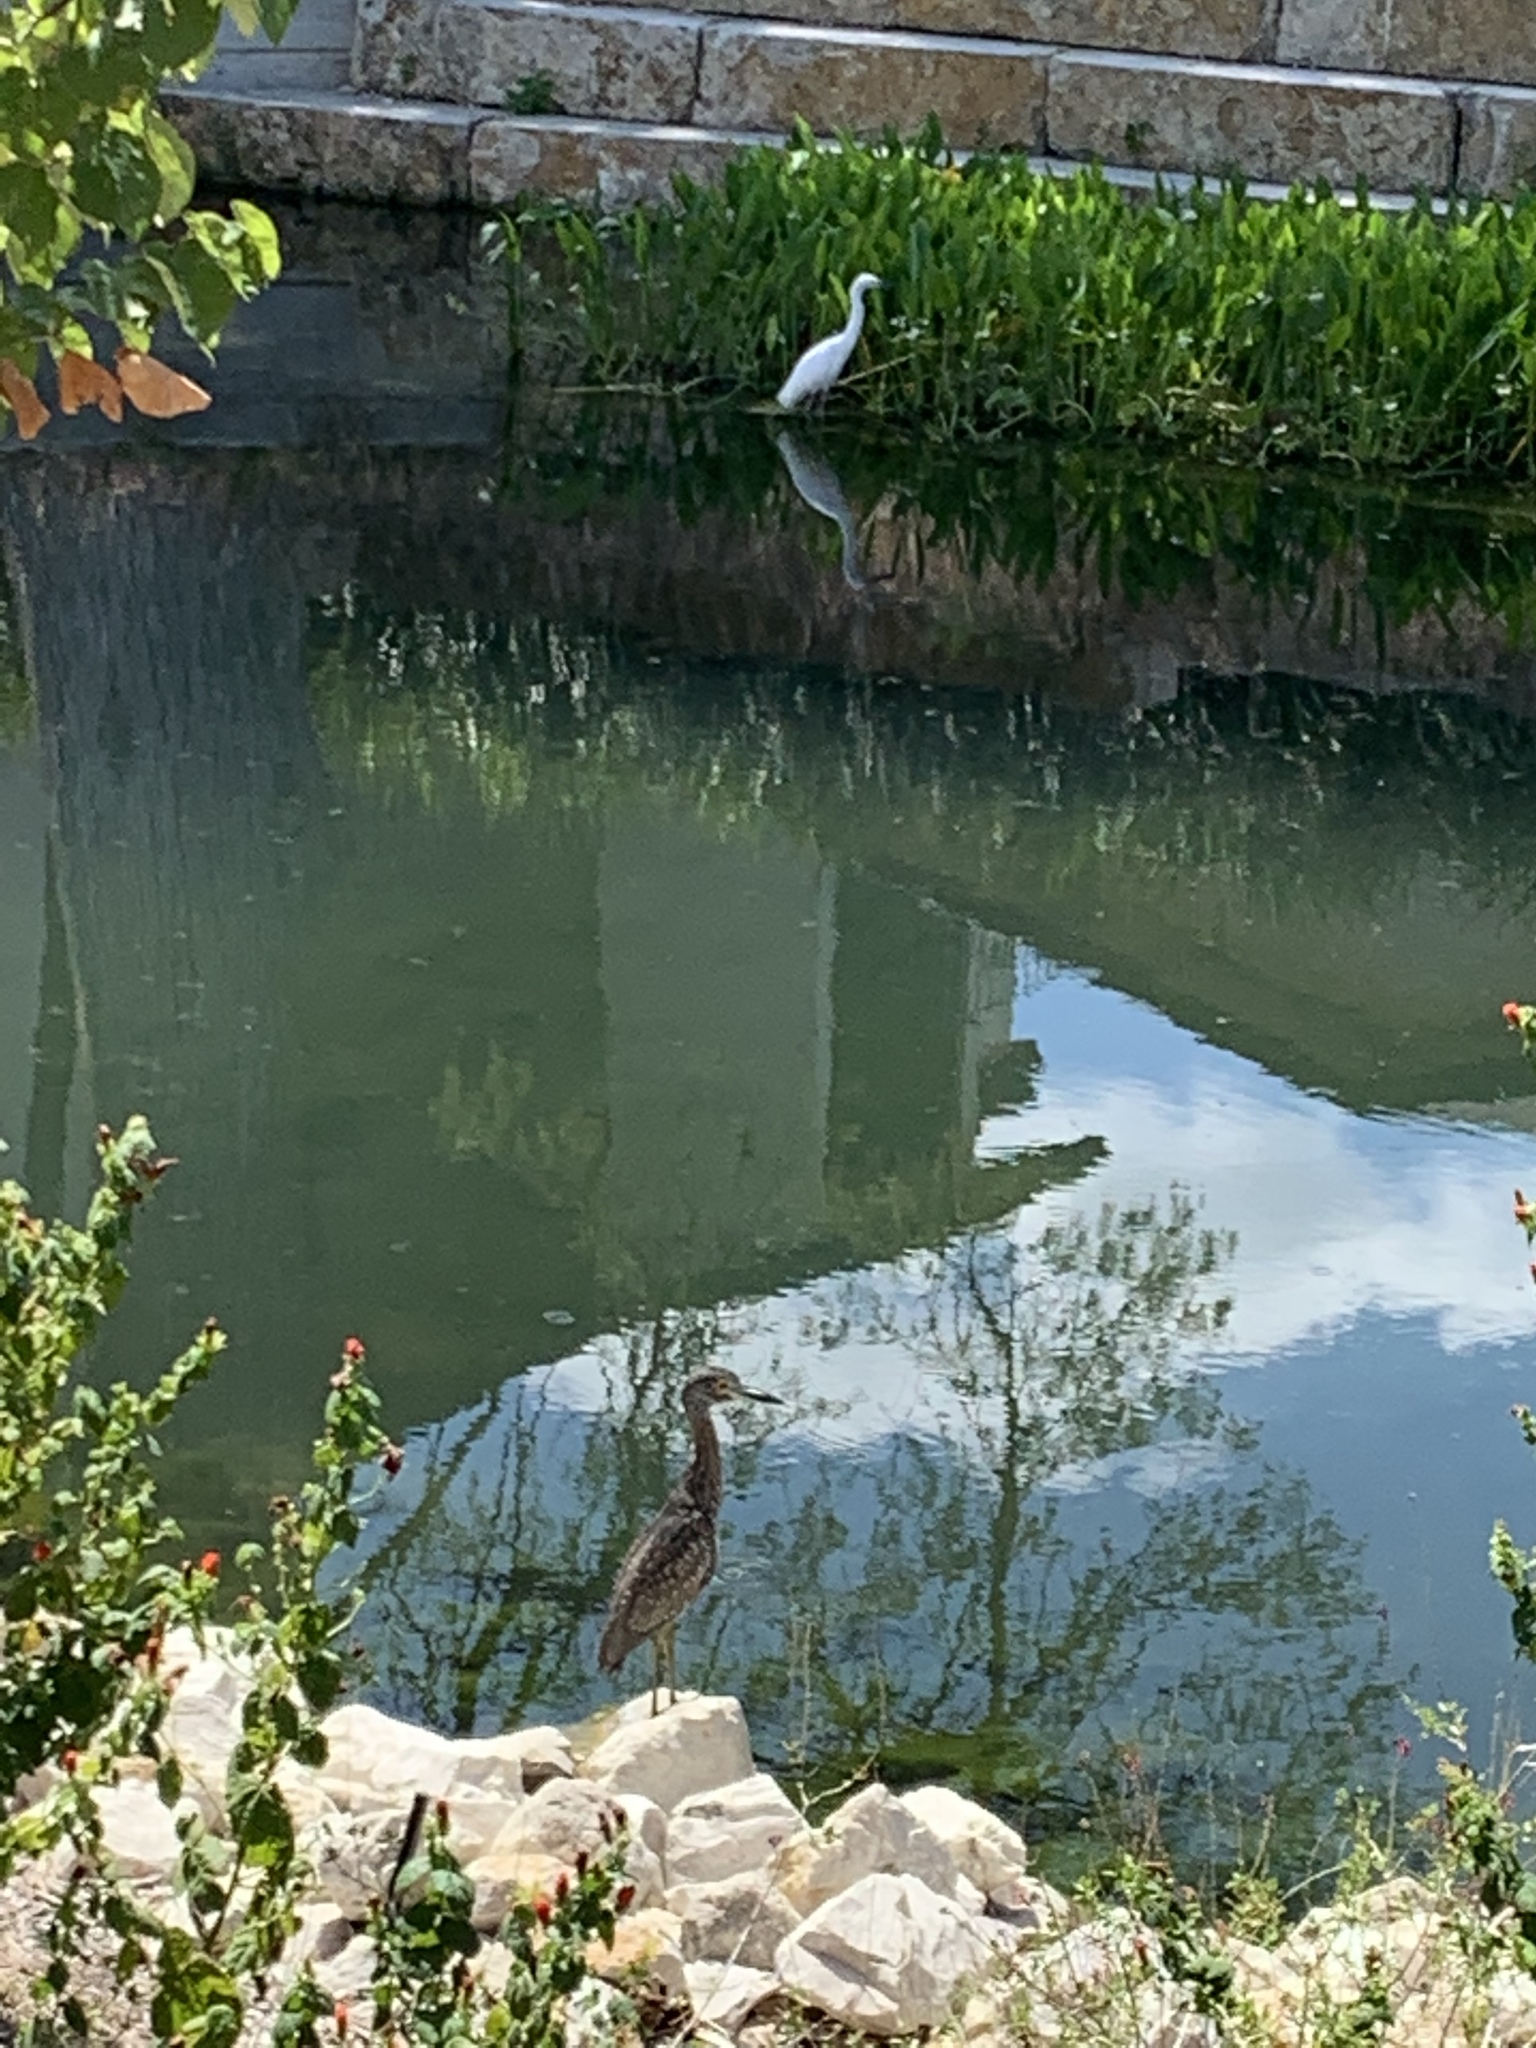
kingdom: Animalia
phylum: Chordata
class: Aves
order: Pelecaniformes
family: Ardeidae
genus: Nyctanassa
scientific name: Nyctanassa violacea
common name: Yellow-crowned night heron
